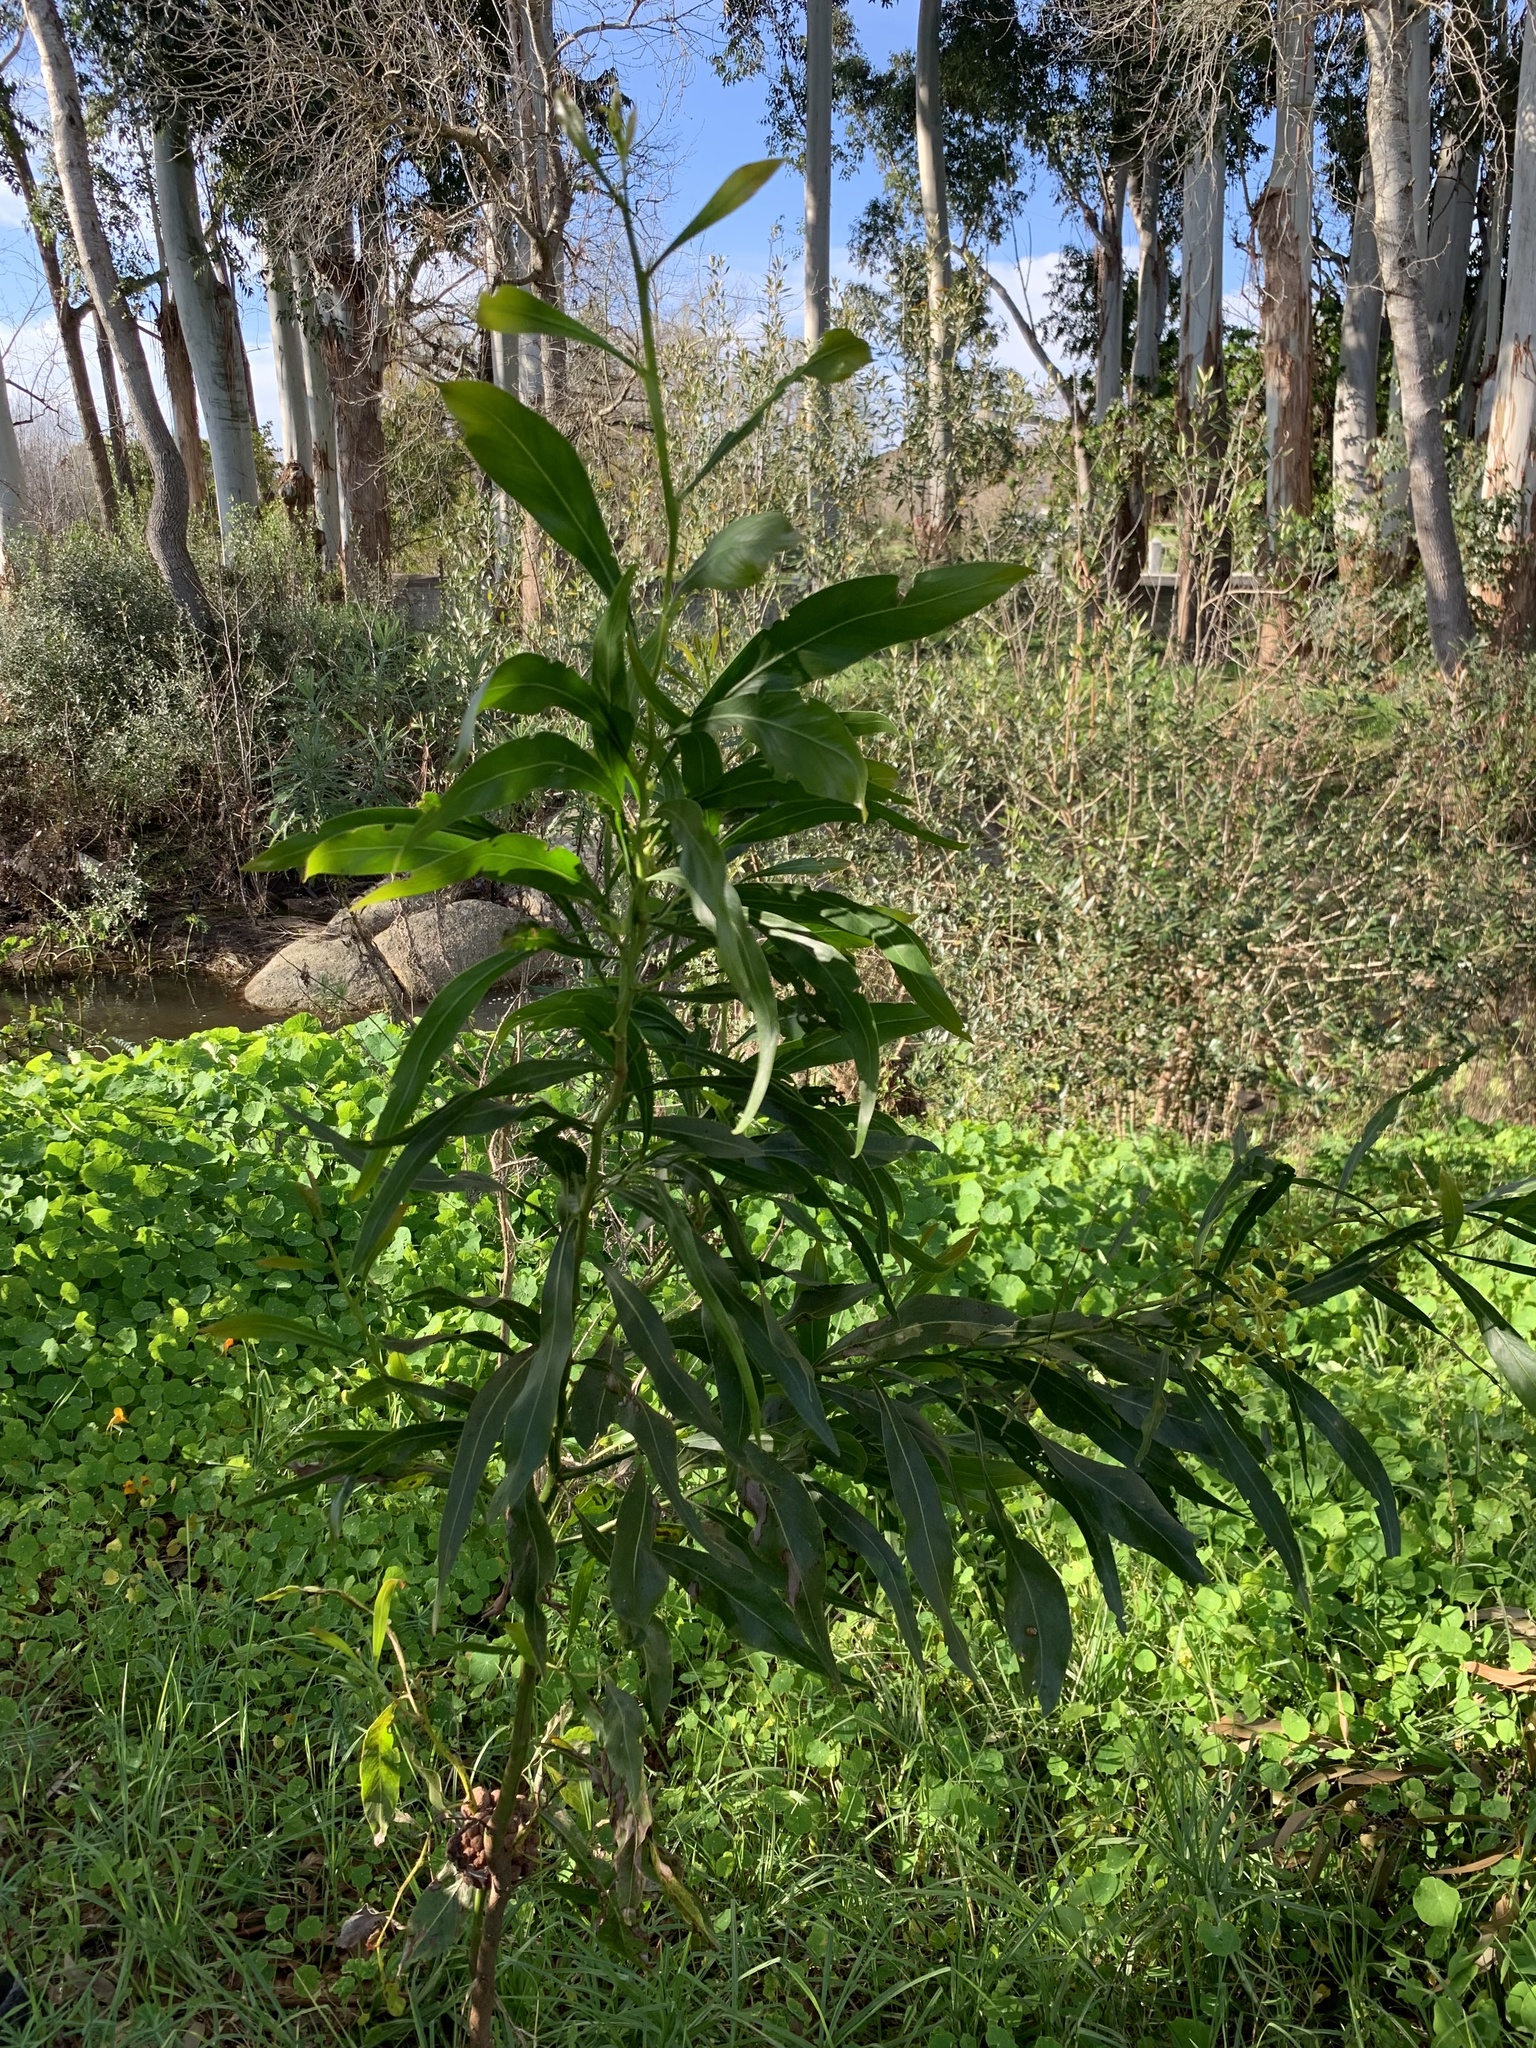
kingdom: Plantae
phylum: Tracheophyta
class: Magnoliopsida
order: Fabales
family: Fabaceae
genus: Acacia
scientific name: Acacia saligna
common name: Orange wattle
